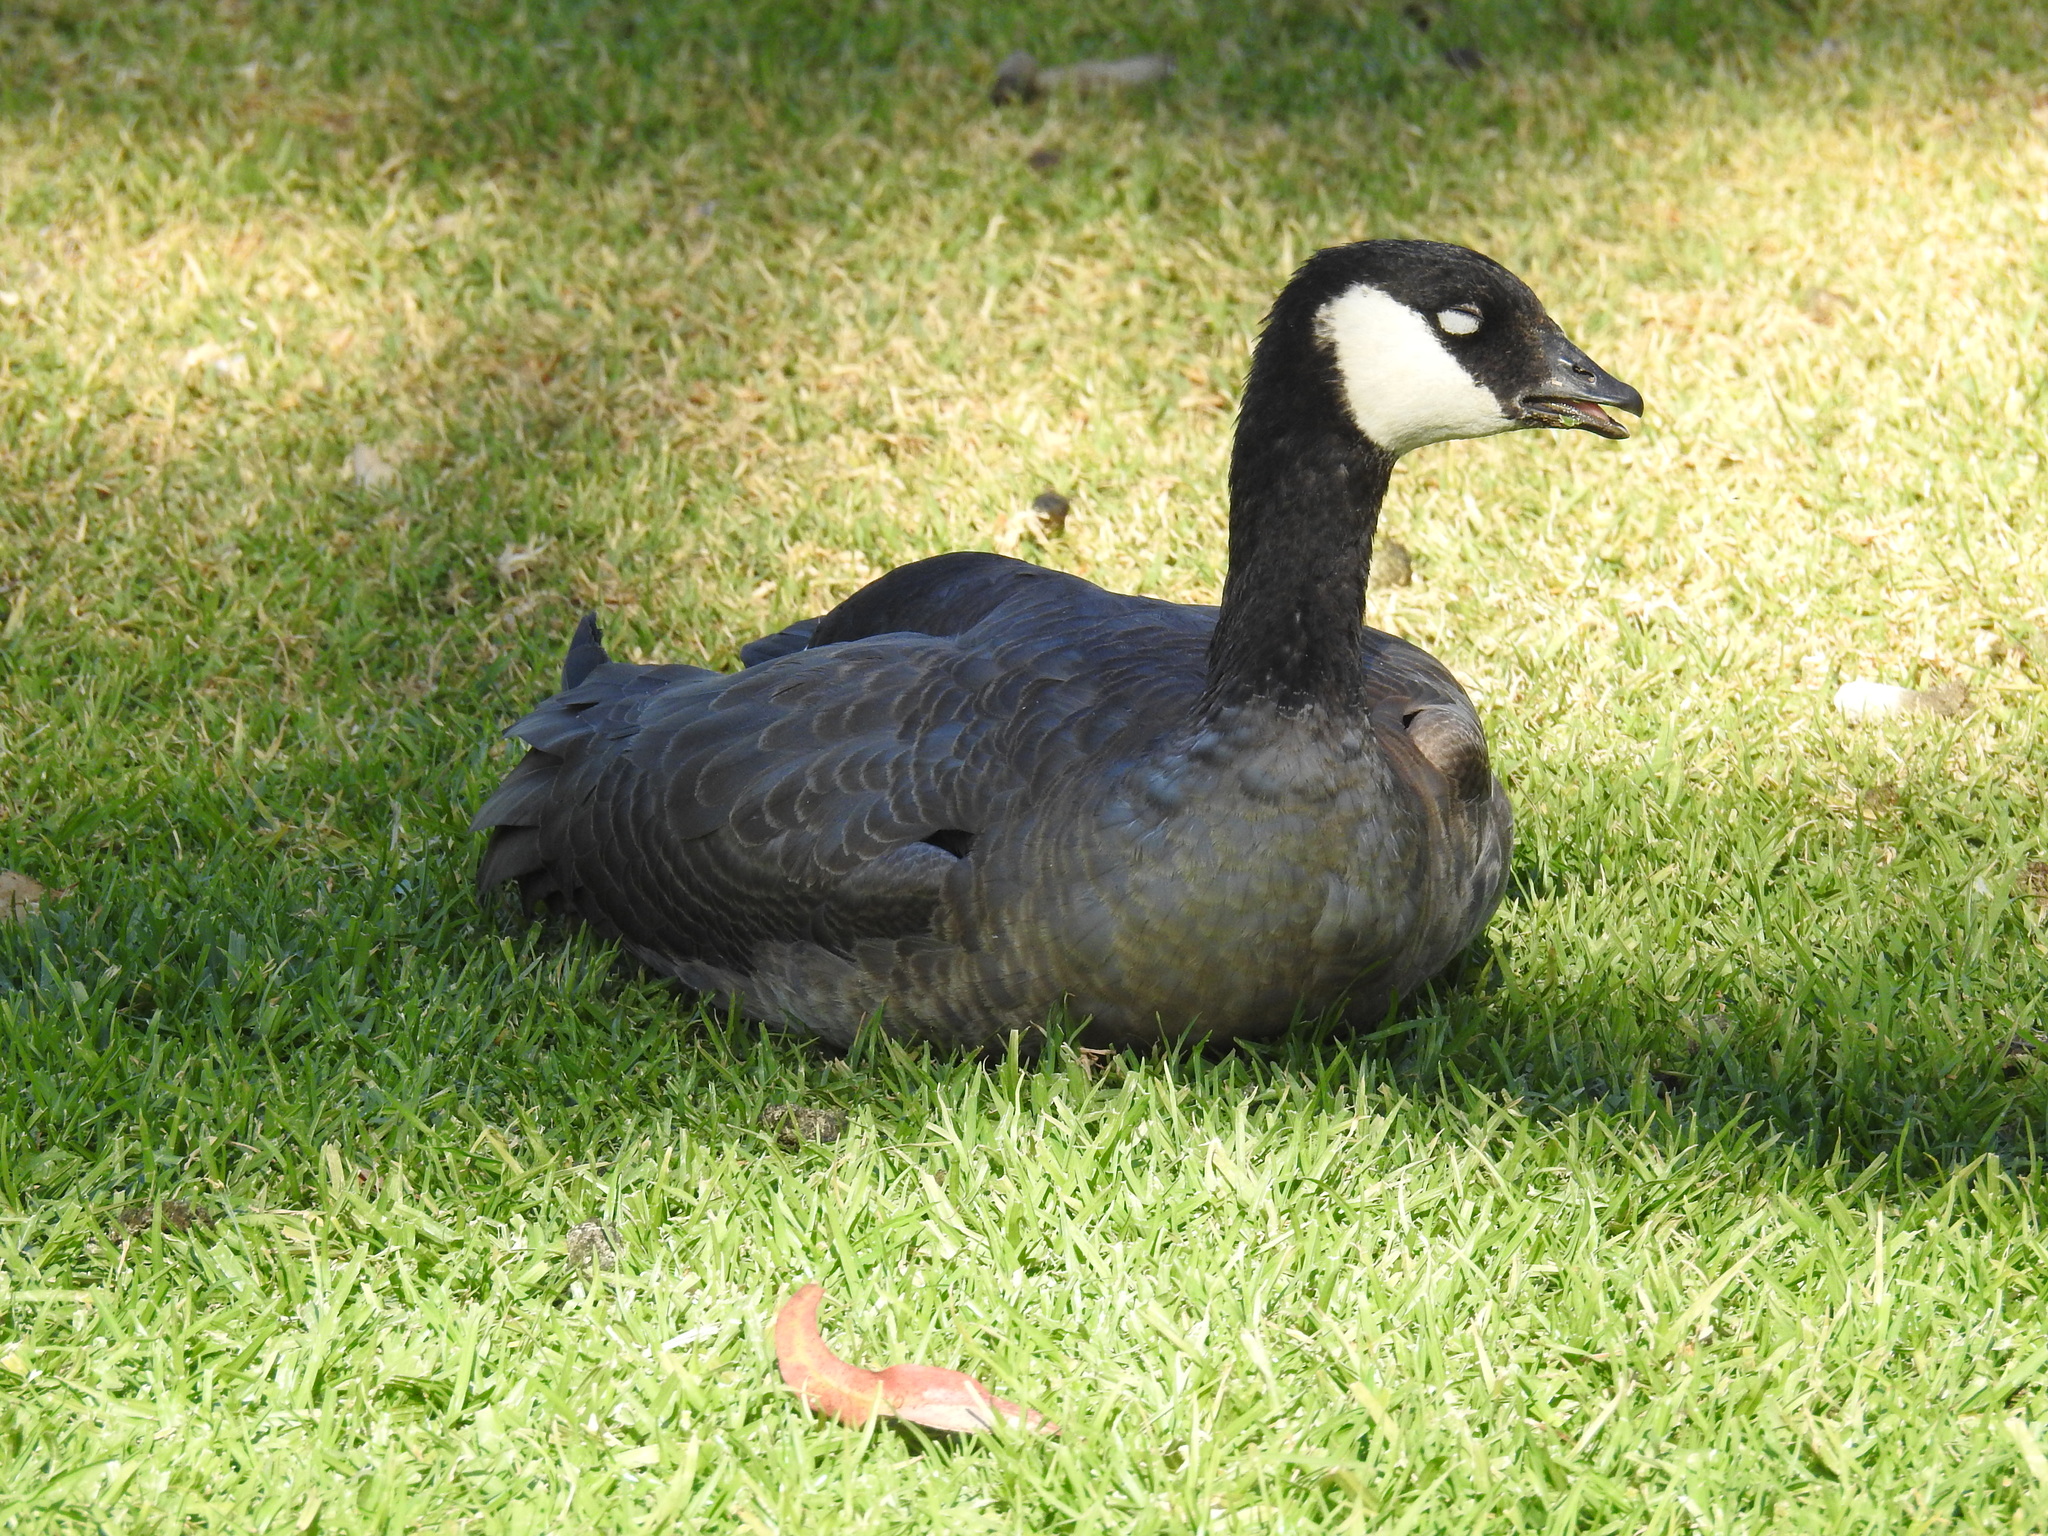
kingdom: Animalia
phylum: Chordata
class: Aves
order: Anseriformes
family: Anatidae
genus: Branta
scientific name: Branta hutchinsii
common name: Cackling goose
